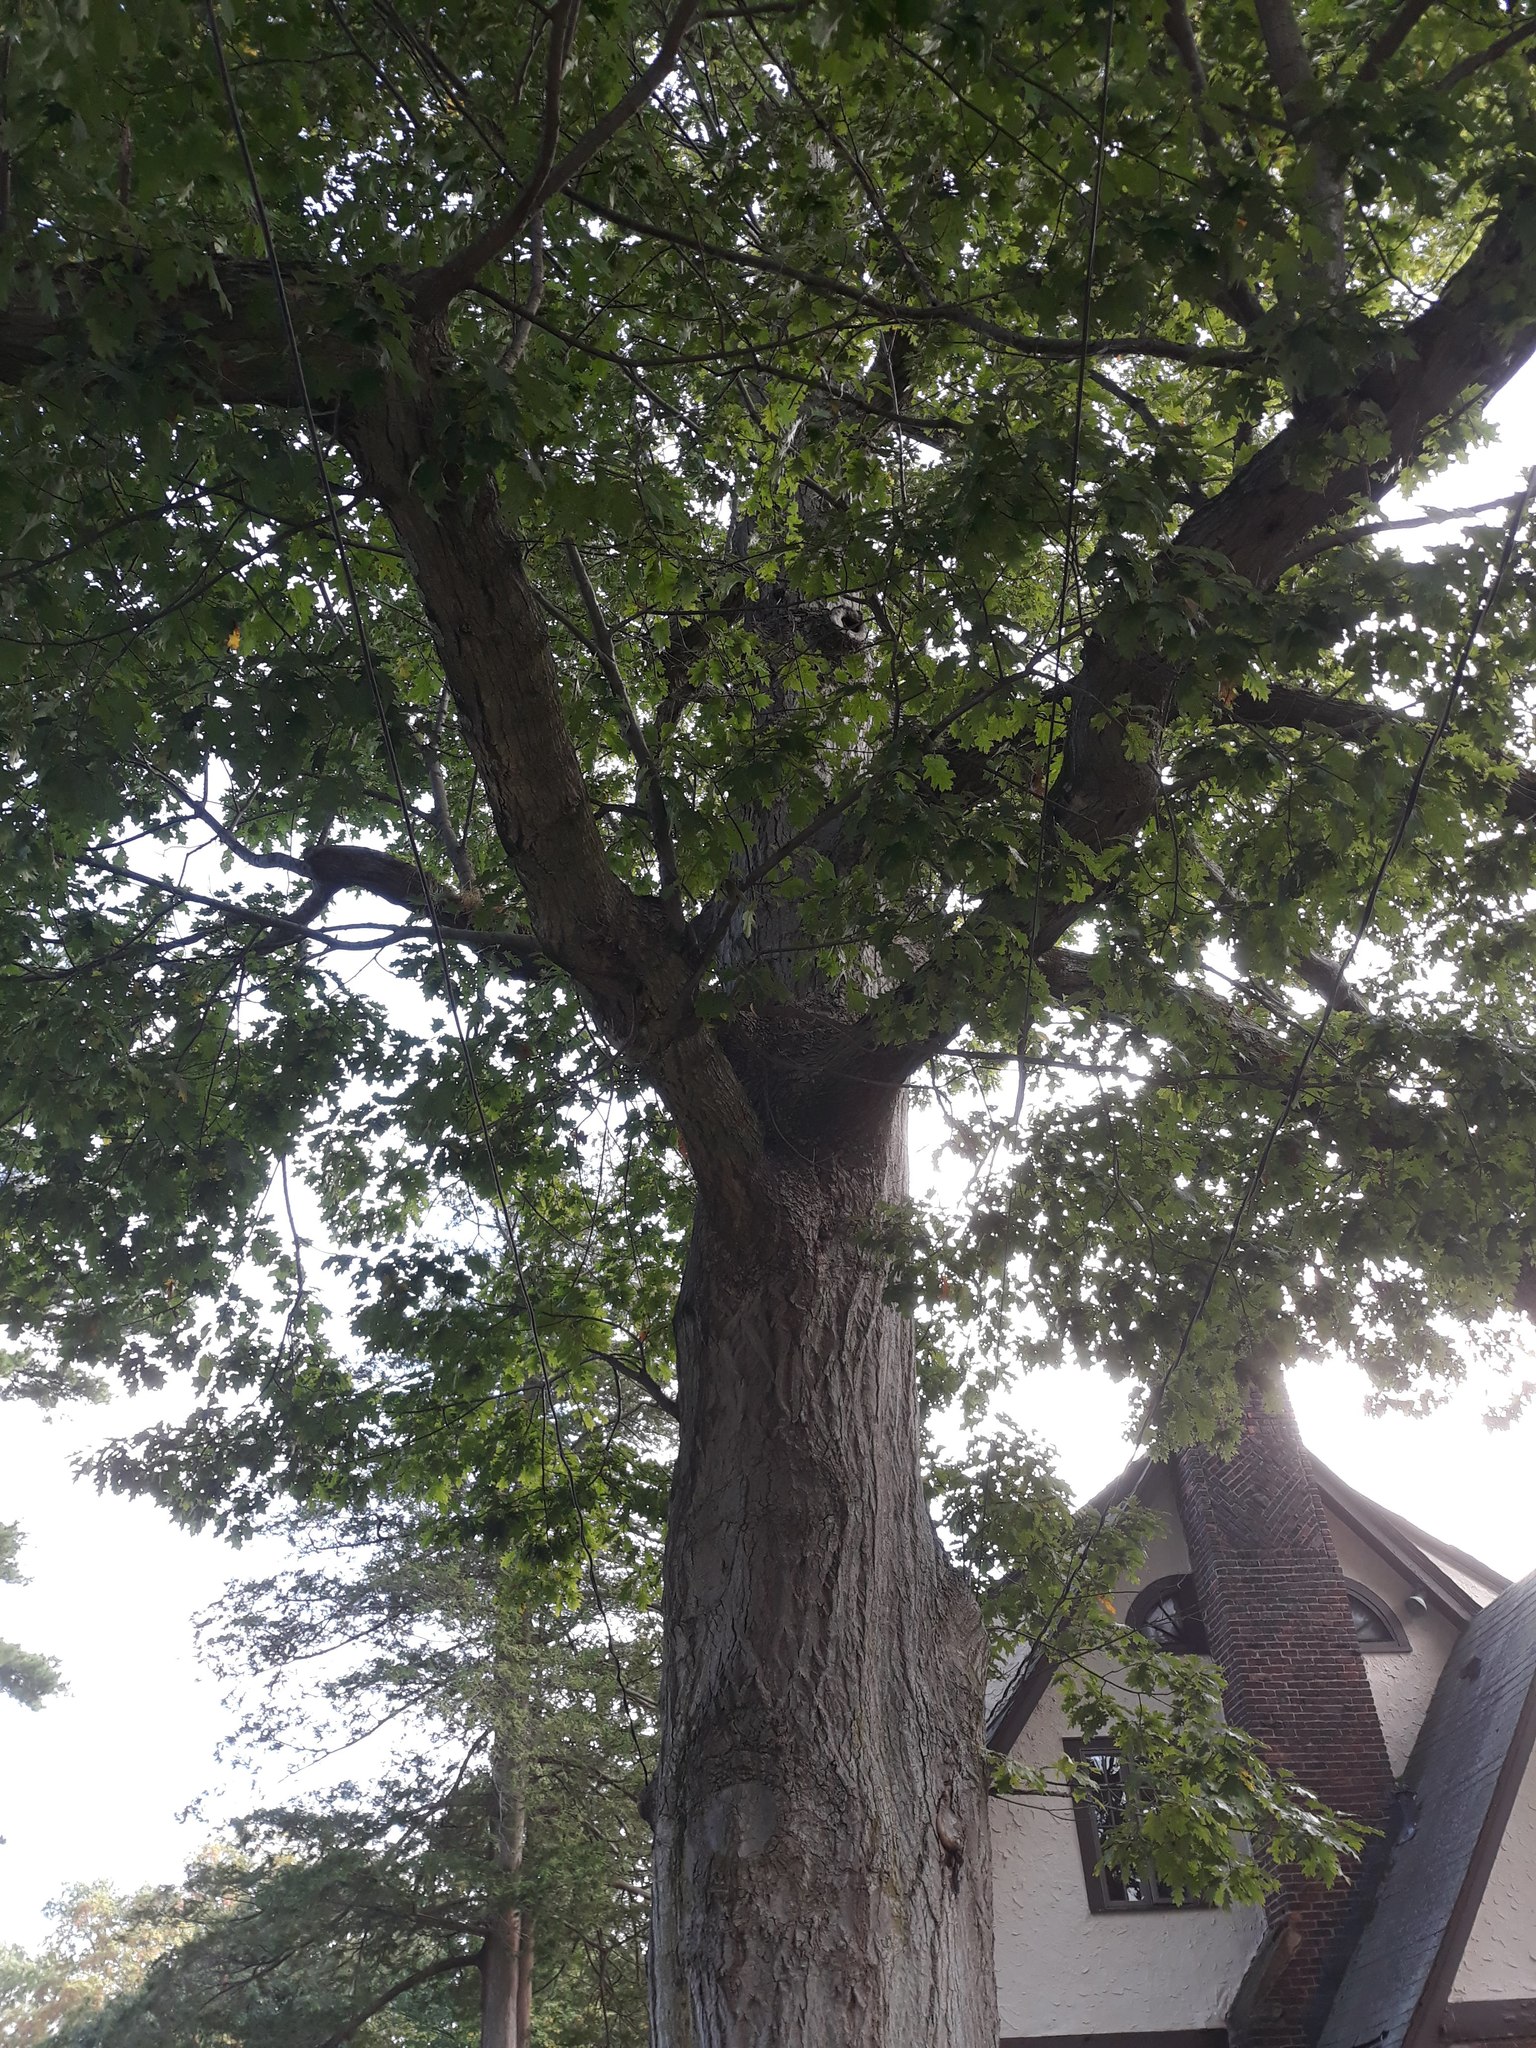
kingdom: Plantae
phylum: Tracheophyta
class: Magnoliopsida
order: Fagales
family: Fagaceae
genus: Quercus
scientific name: Quercus rubra
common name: Red oak
